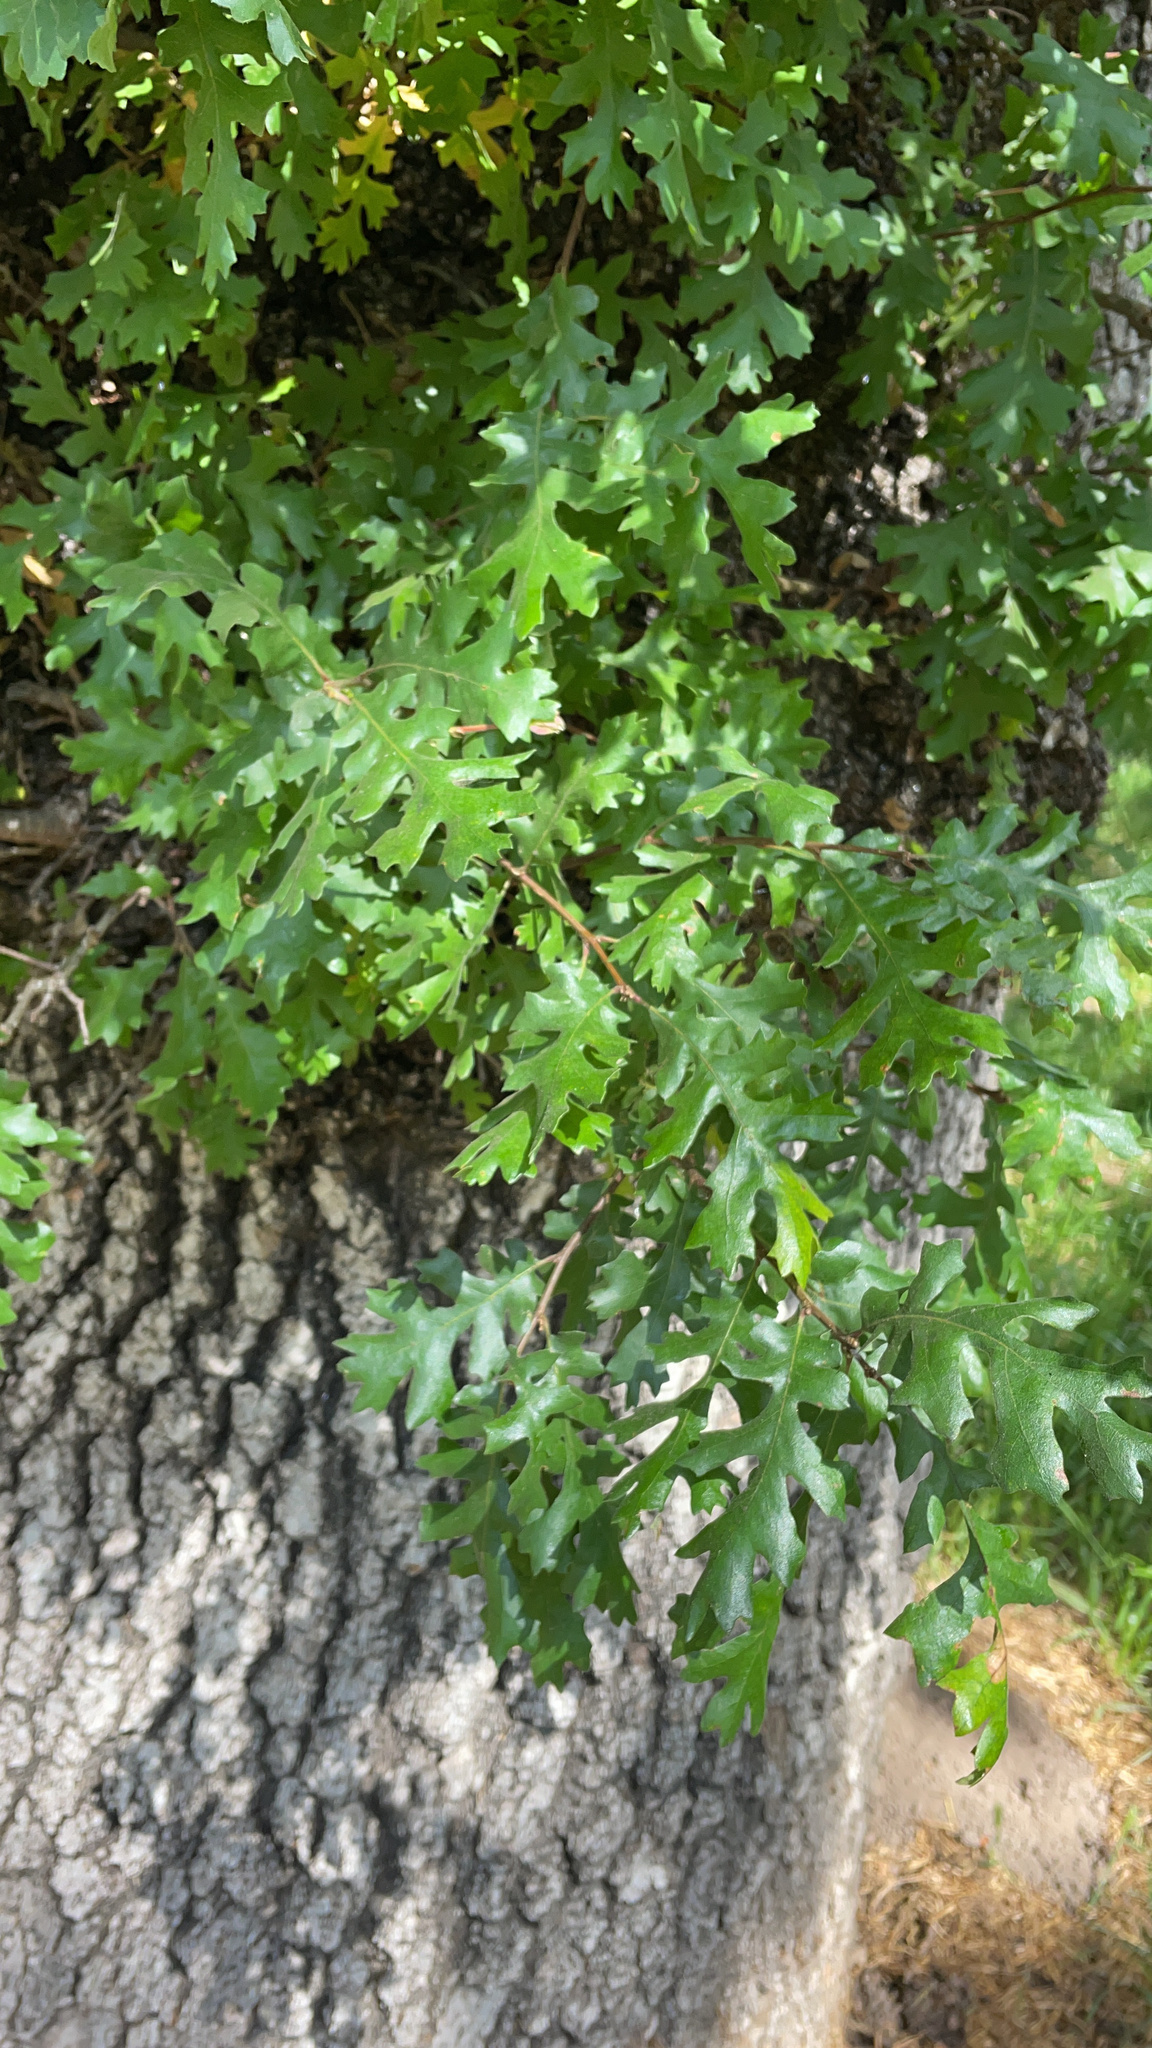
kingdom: Plantae
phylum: Tracheophyta
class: Magnoliopsida
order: Fagales
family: Fagaceae
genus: Quercus
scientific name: Quercus lobata
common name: Valley oak
